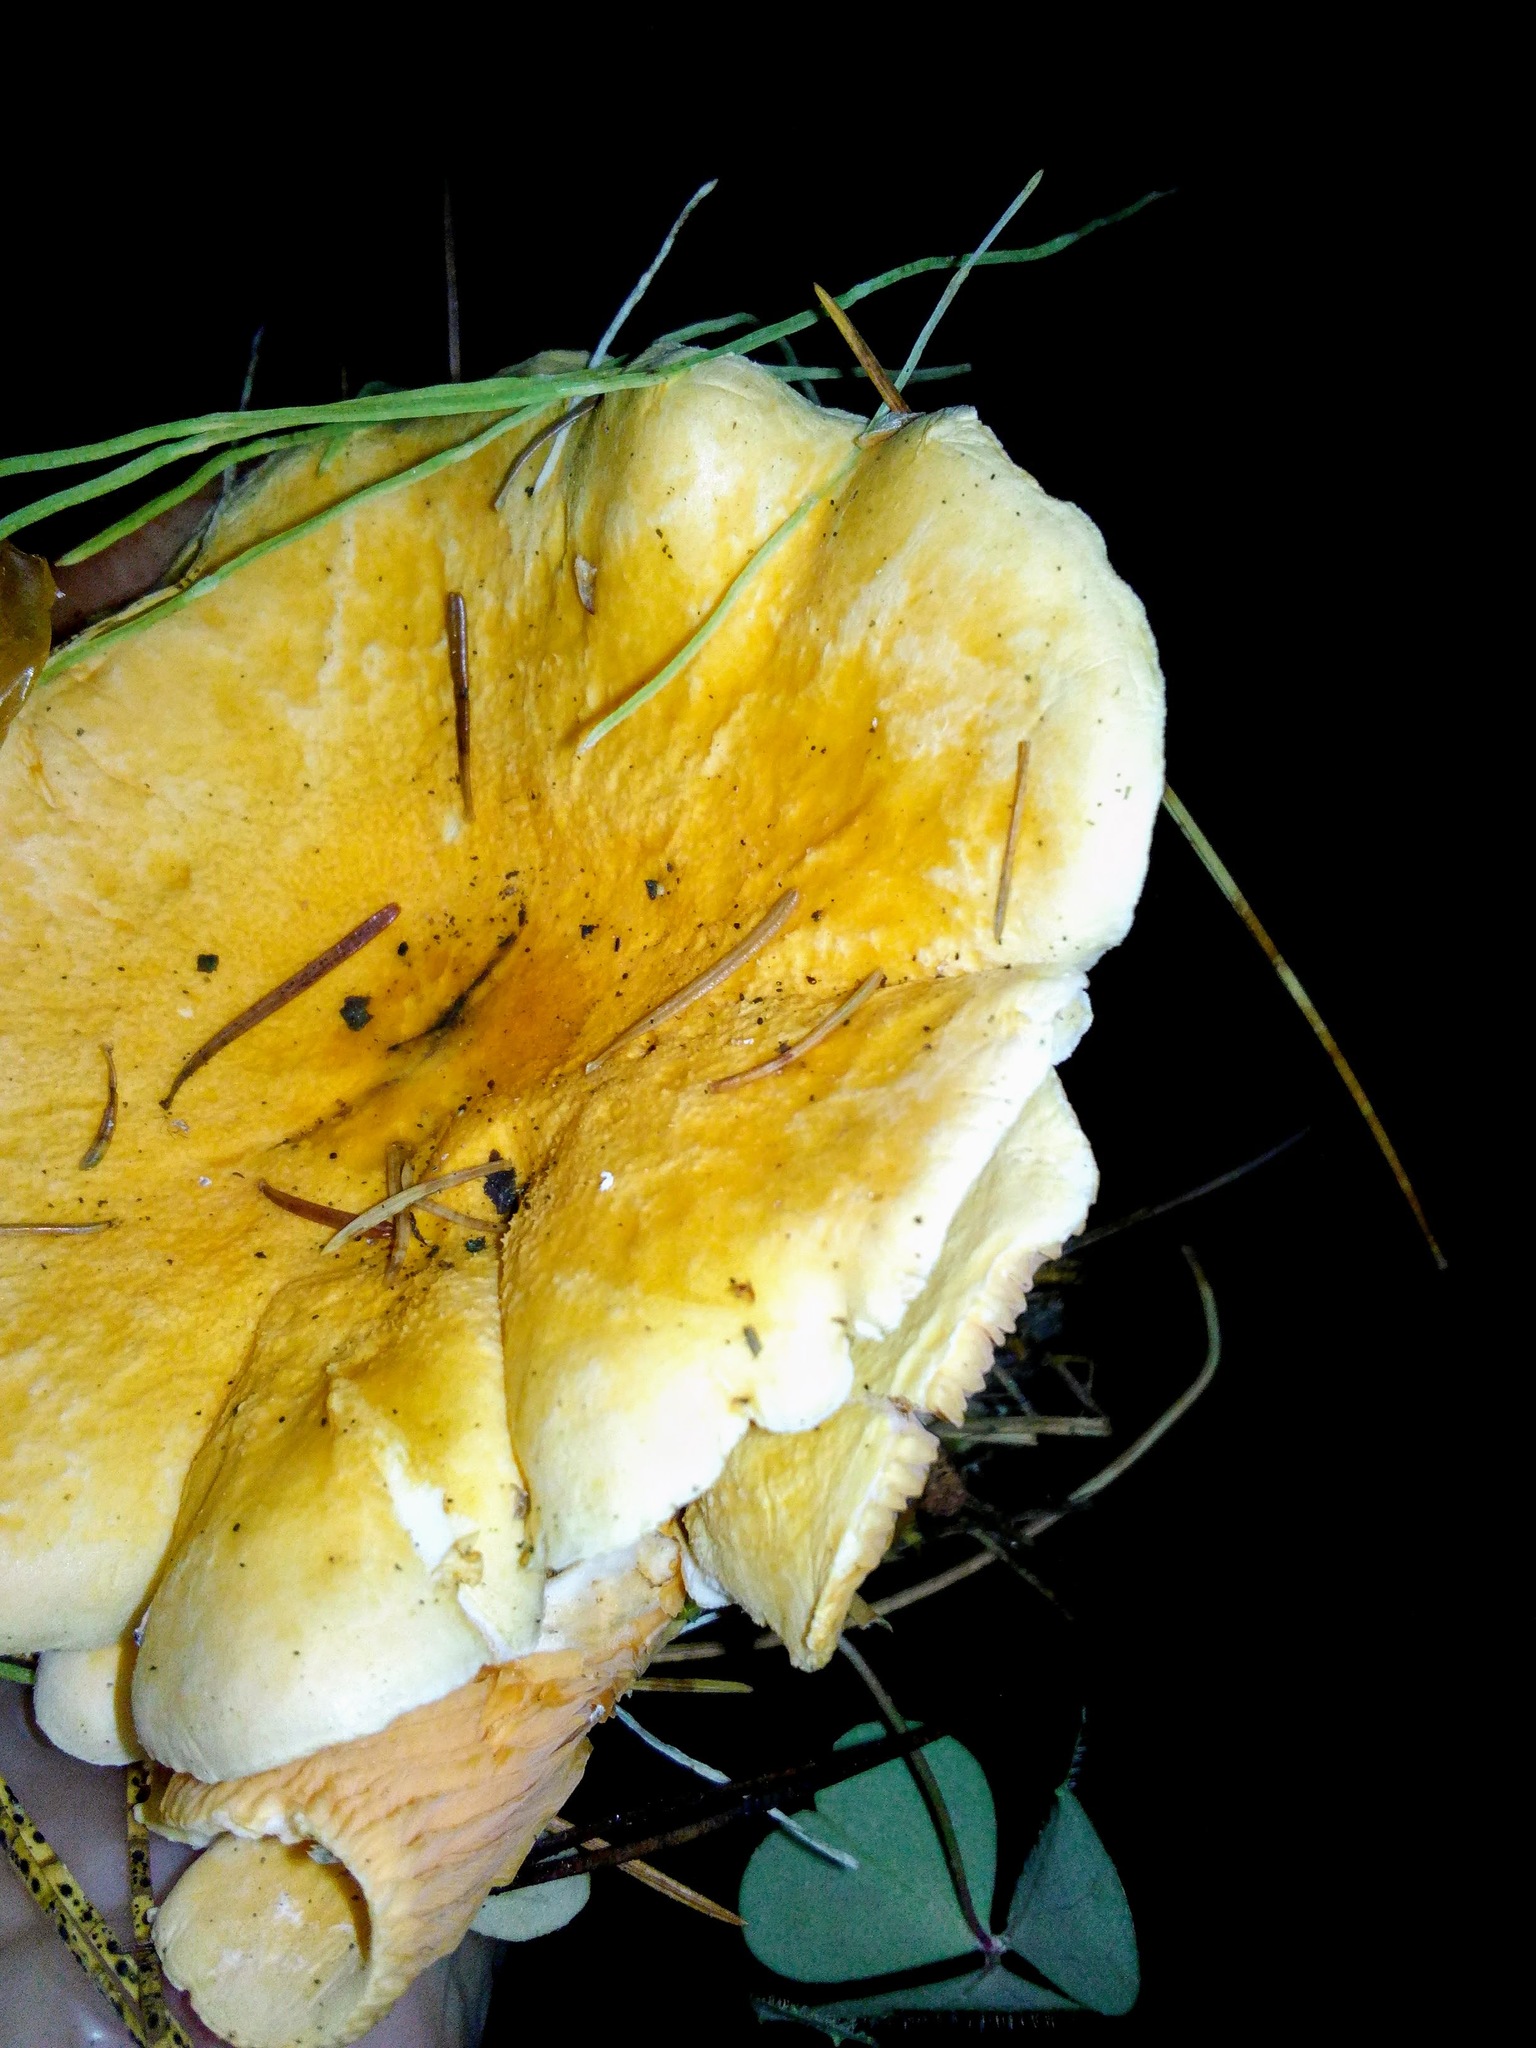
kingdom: Fungi
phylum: Basidiomycota
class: Agaricomycetes
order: Boletales
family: Hygrophoropsidaceae
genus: Hygrophoropsis
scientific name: Hygrophoropsis aurantiaca
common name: False chanterelle
